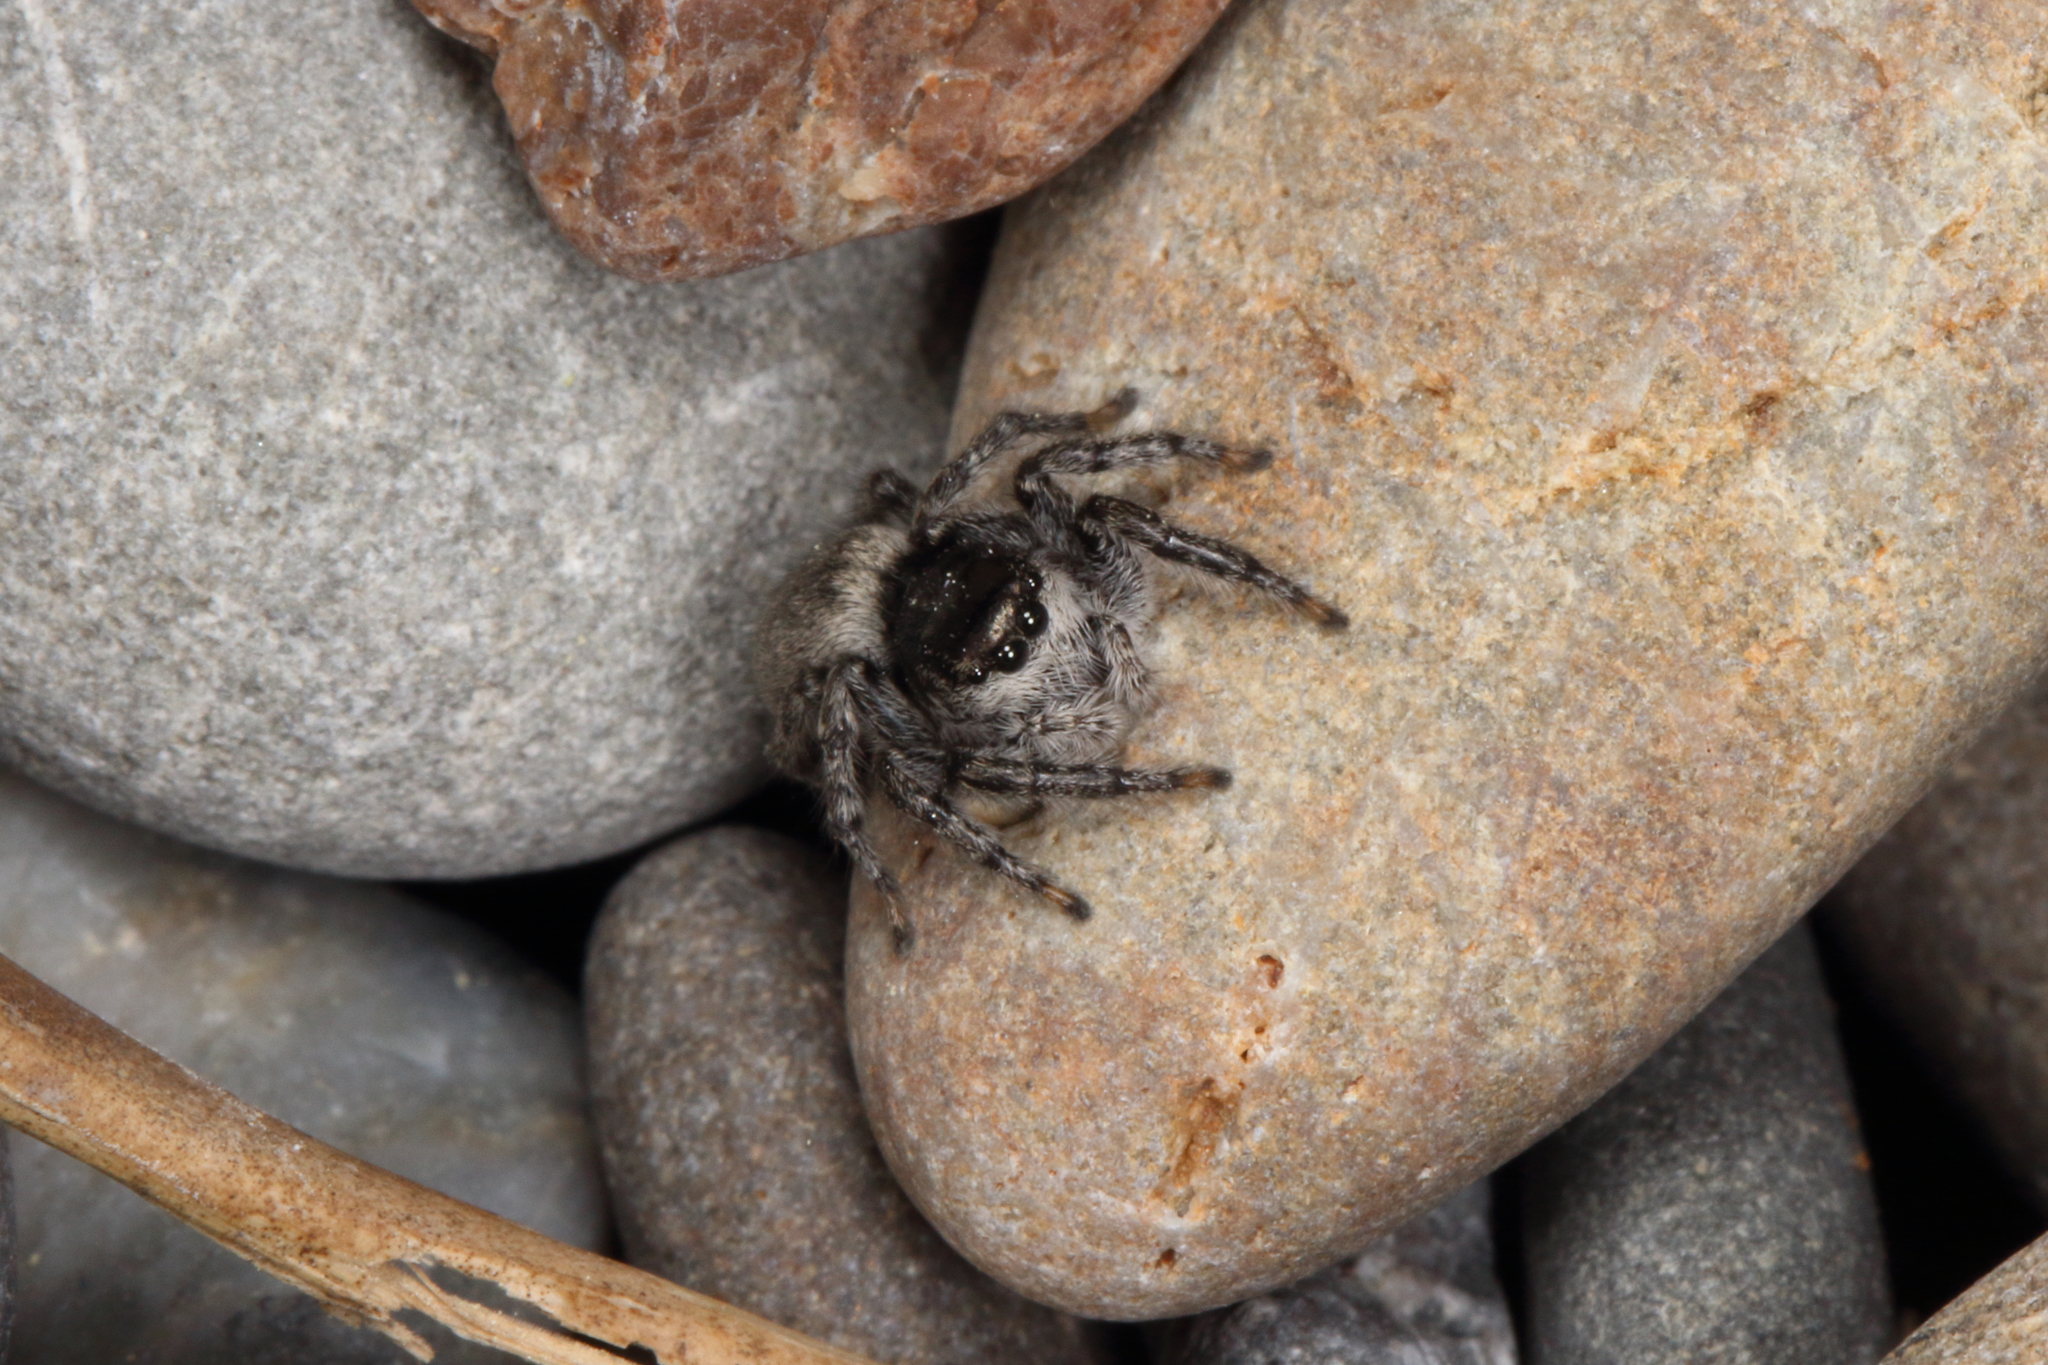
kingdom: Animalia
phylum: Arthropoda
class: Arachnida
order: Araneae
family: Salticidae
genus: Marpissa
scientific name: Marpissa marina
